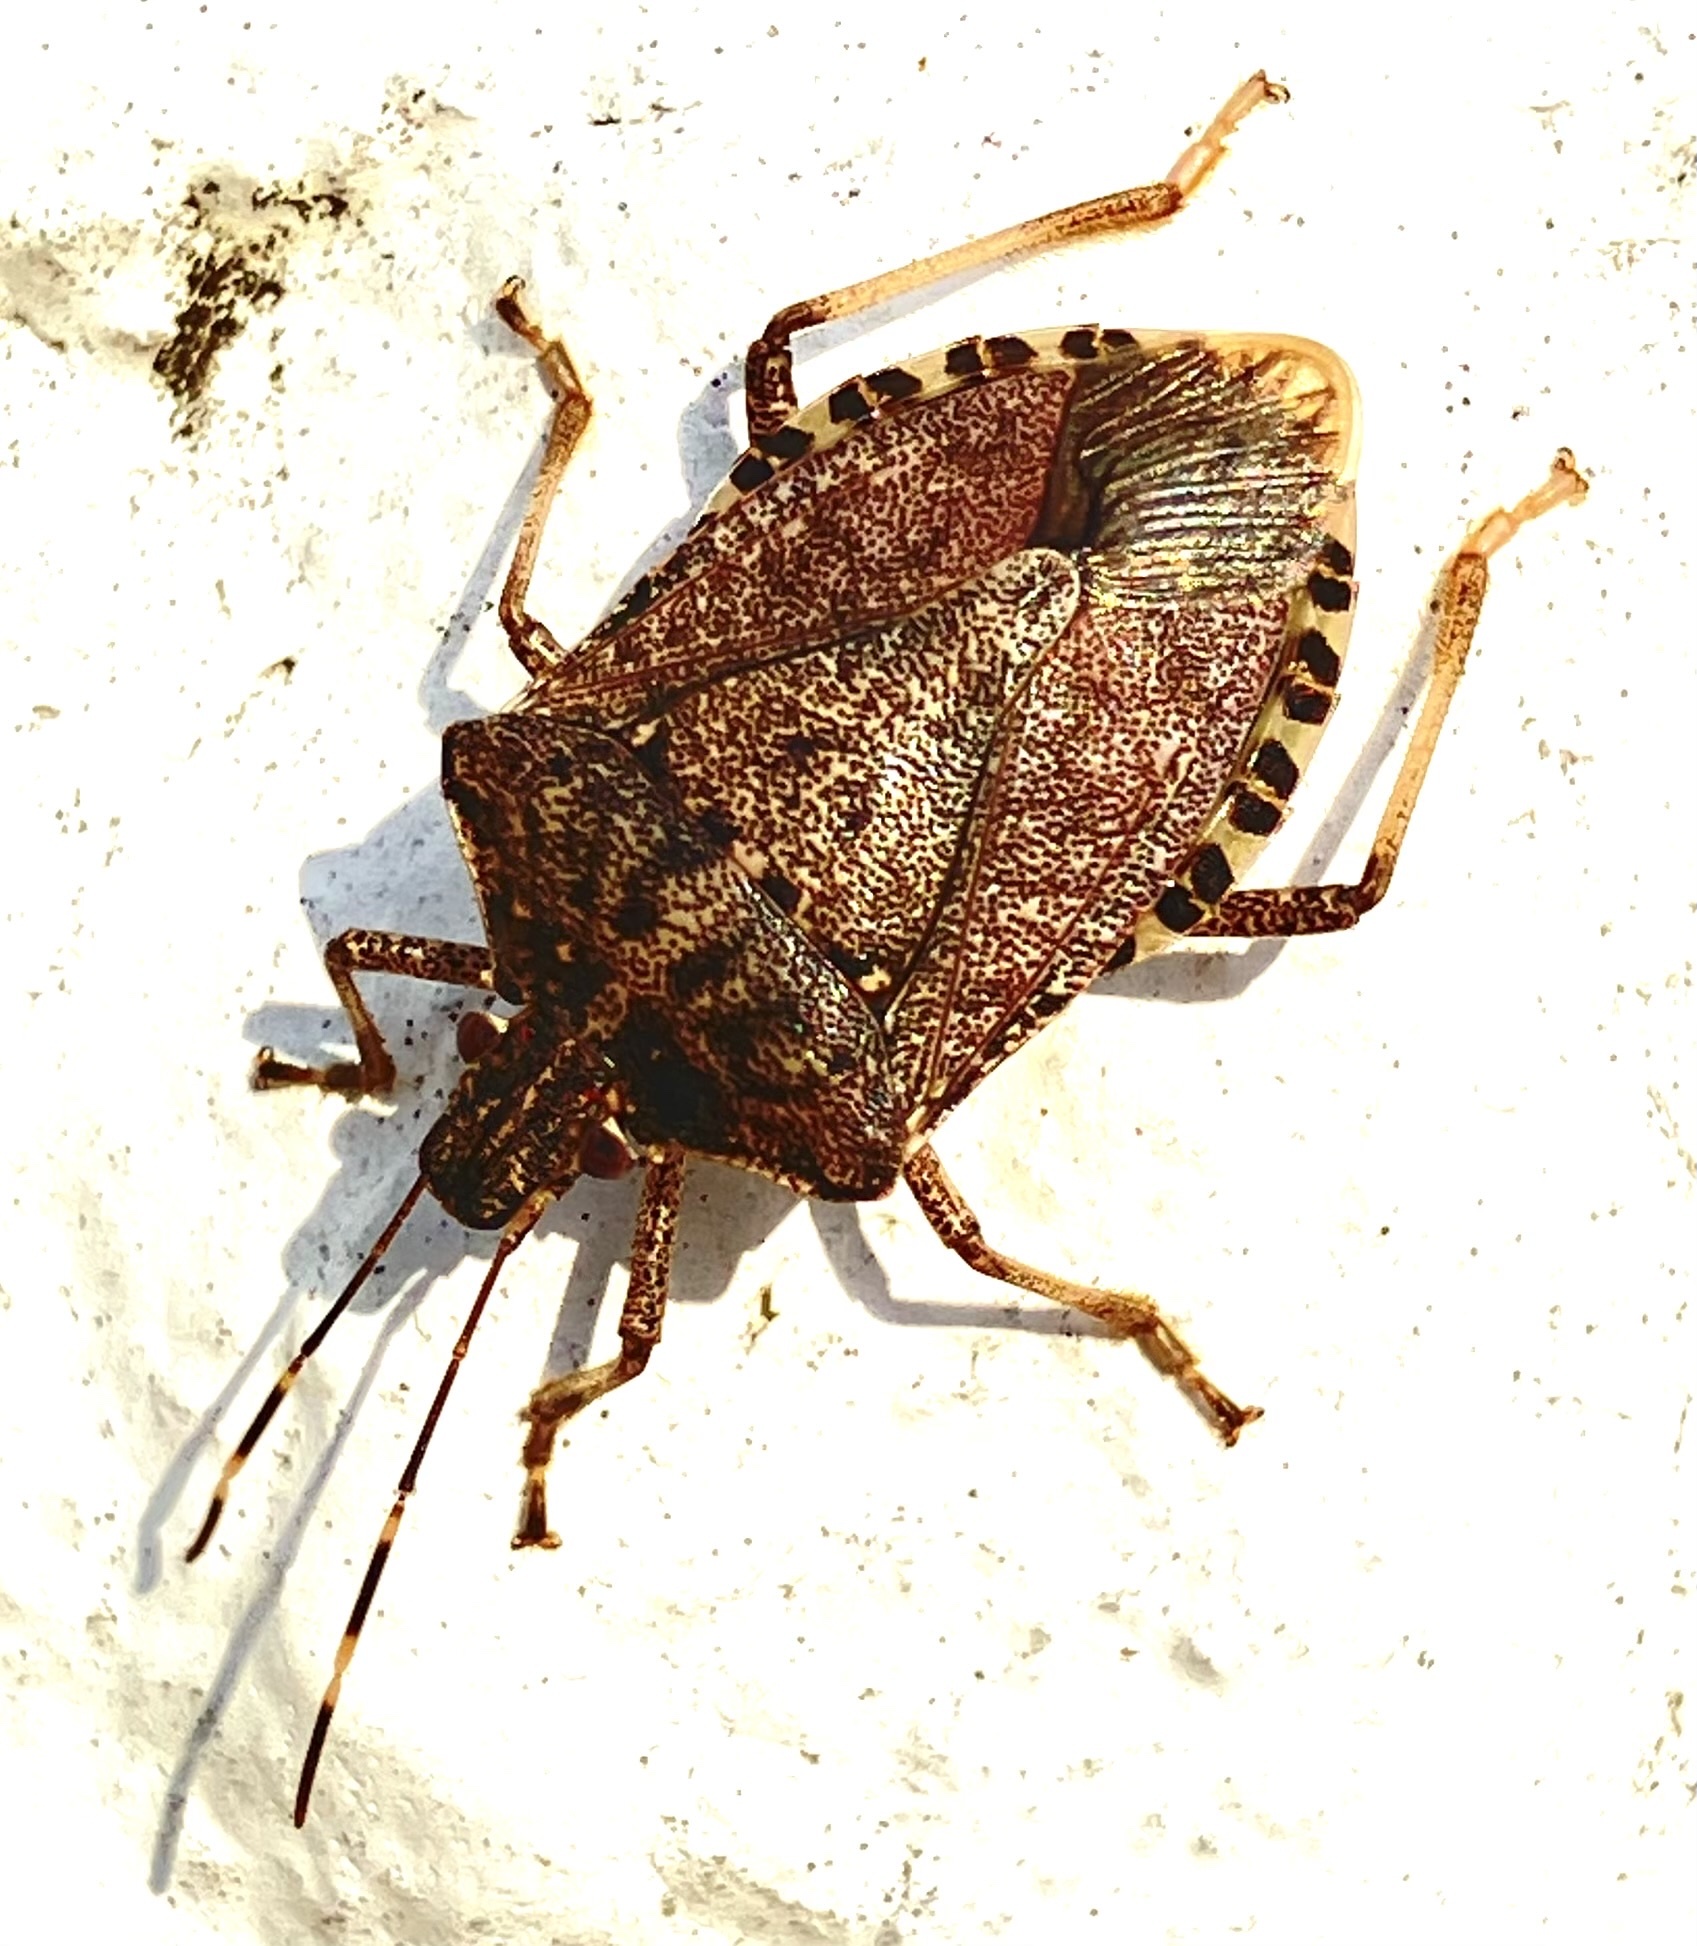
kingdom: Animalia
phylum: Arthropoda
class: Insecta
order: Hemiptera
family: Pentatomidae
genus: Halyomorpha
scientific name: Halyomorpha halys
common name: Brown marmorated stink bug
